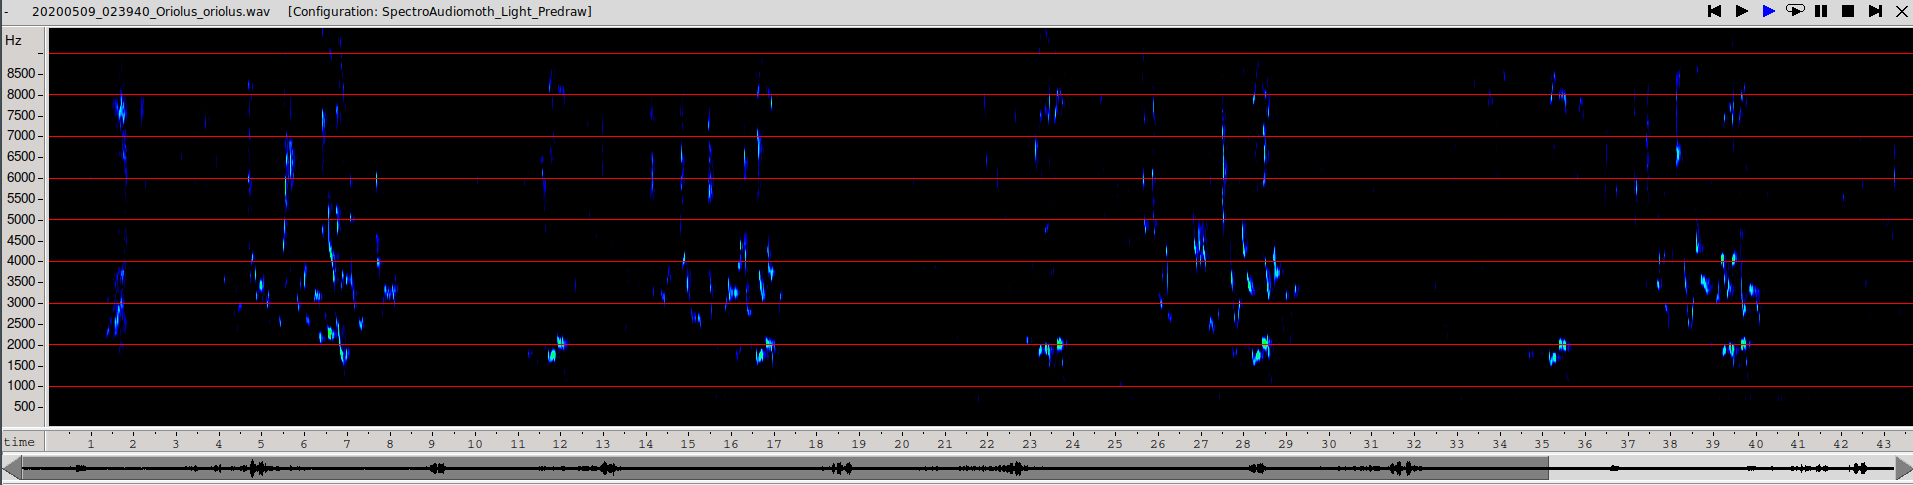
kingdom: Animalia
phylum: Chordata
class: Aves
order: Passeriformes
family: Oriolidae
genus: Oriolus
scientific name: Oriolus oriolus
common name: Eurasian golden oriole
